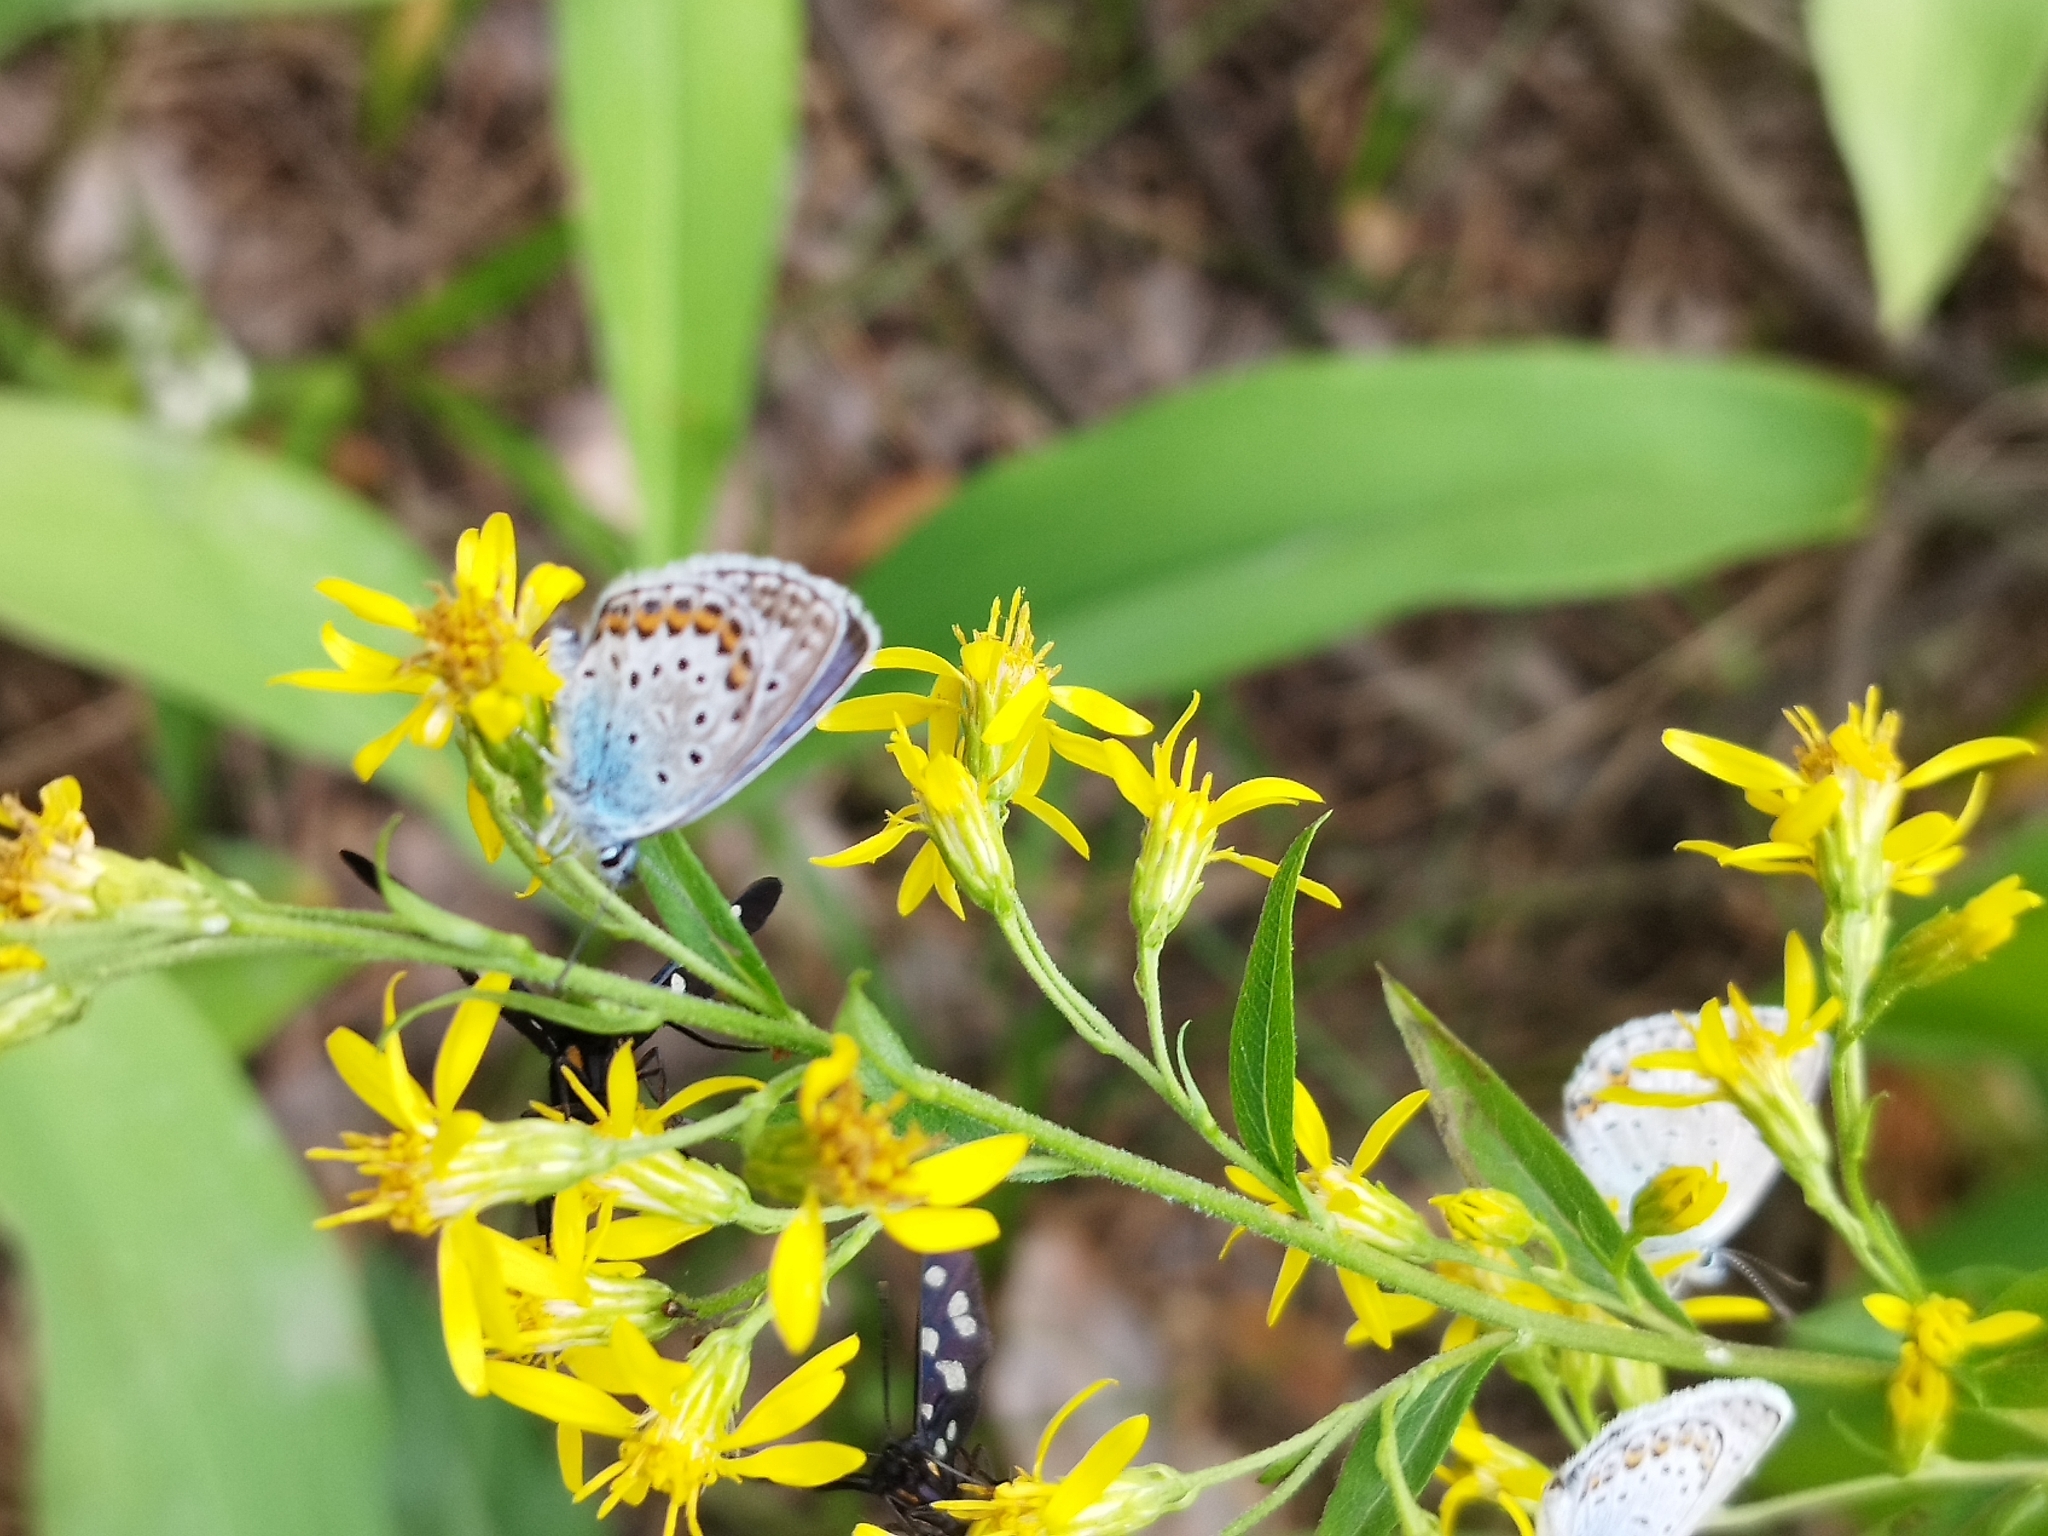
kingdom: Animalia
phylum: Arthropoda
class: Insecta
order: Lepidoptera
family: Lycaenidae
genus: Plebejus
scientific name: Plebejus argus
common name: Silver-studded blue
